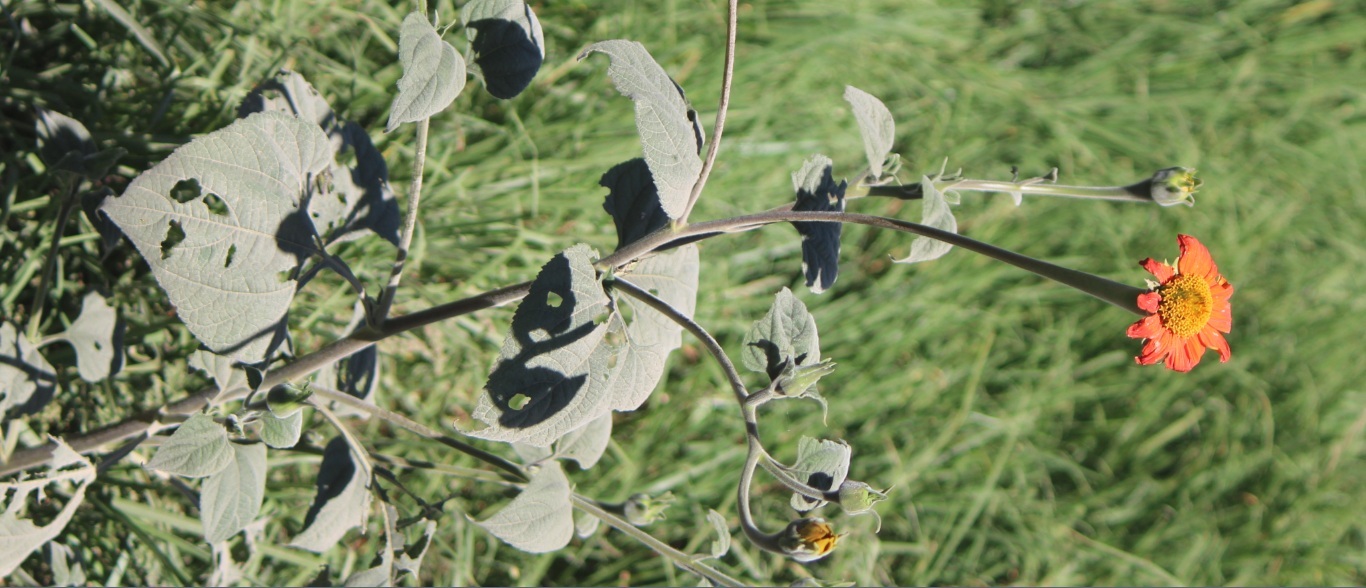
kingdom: Plantae
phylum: Tracheophyta
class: Magnoliopsida
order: Asterales
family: Asteraceae
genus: Tithonia
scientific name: Tithonia rotundifolia
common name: Sunflower
